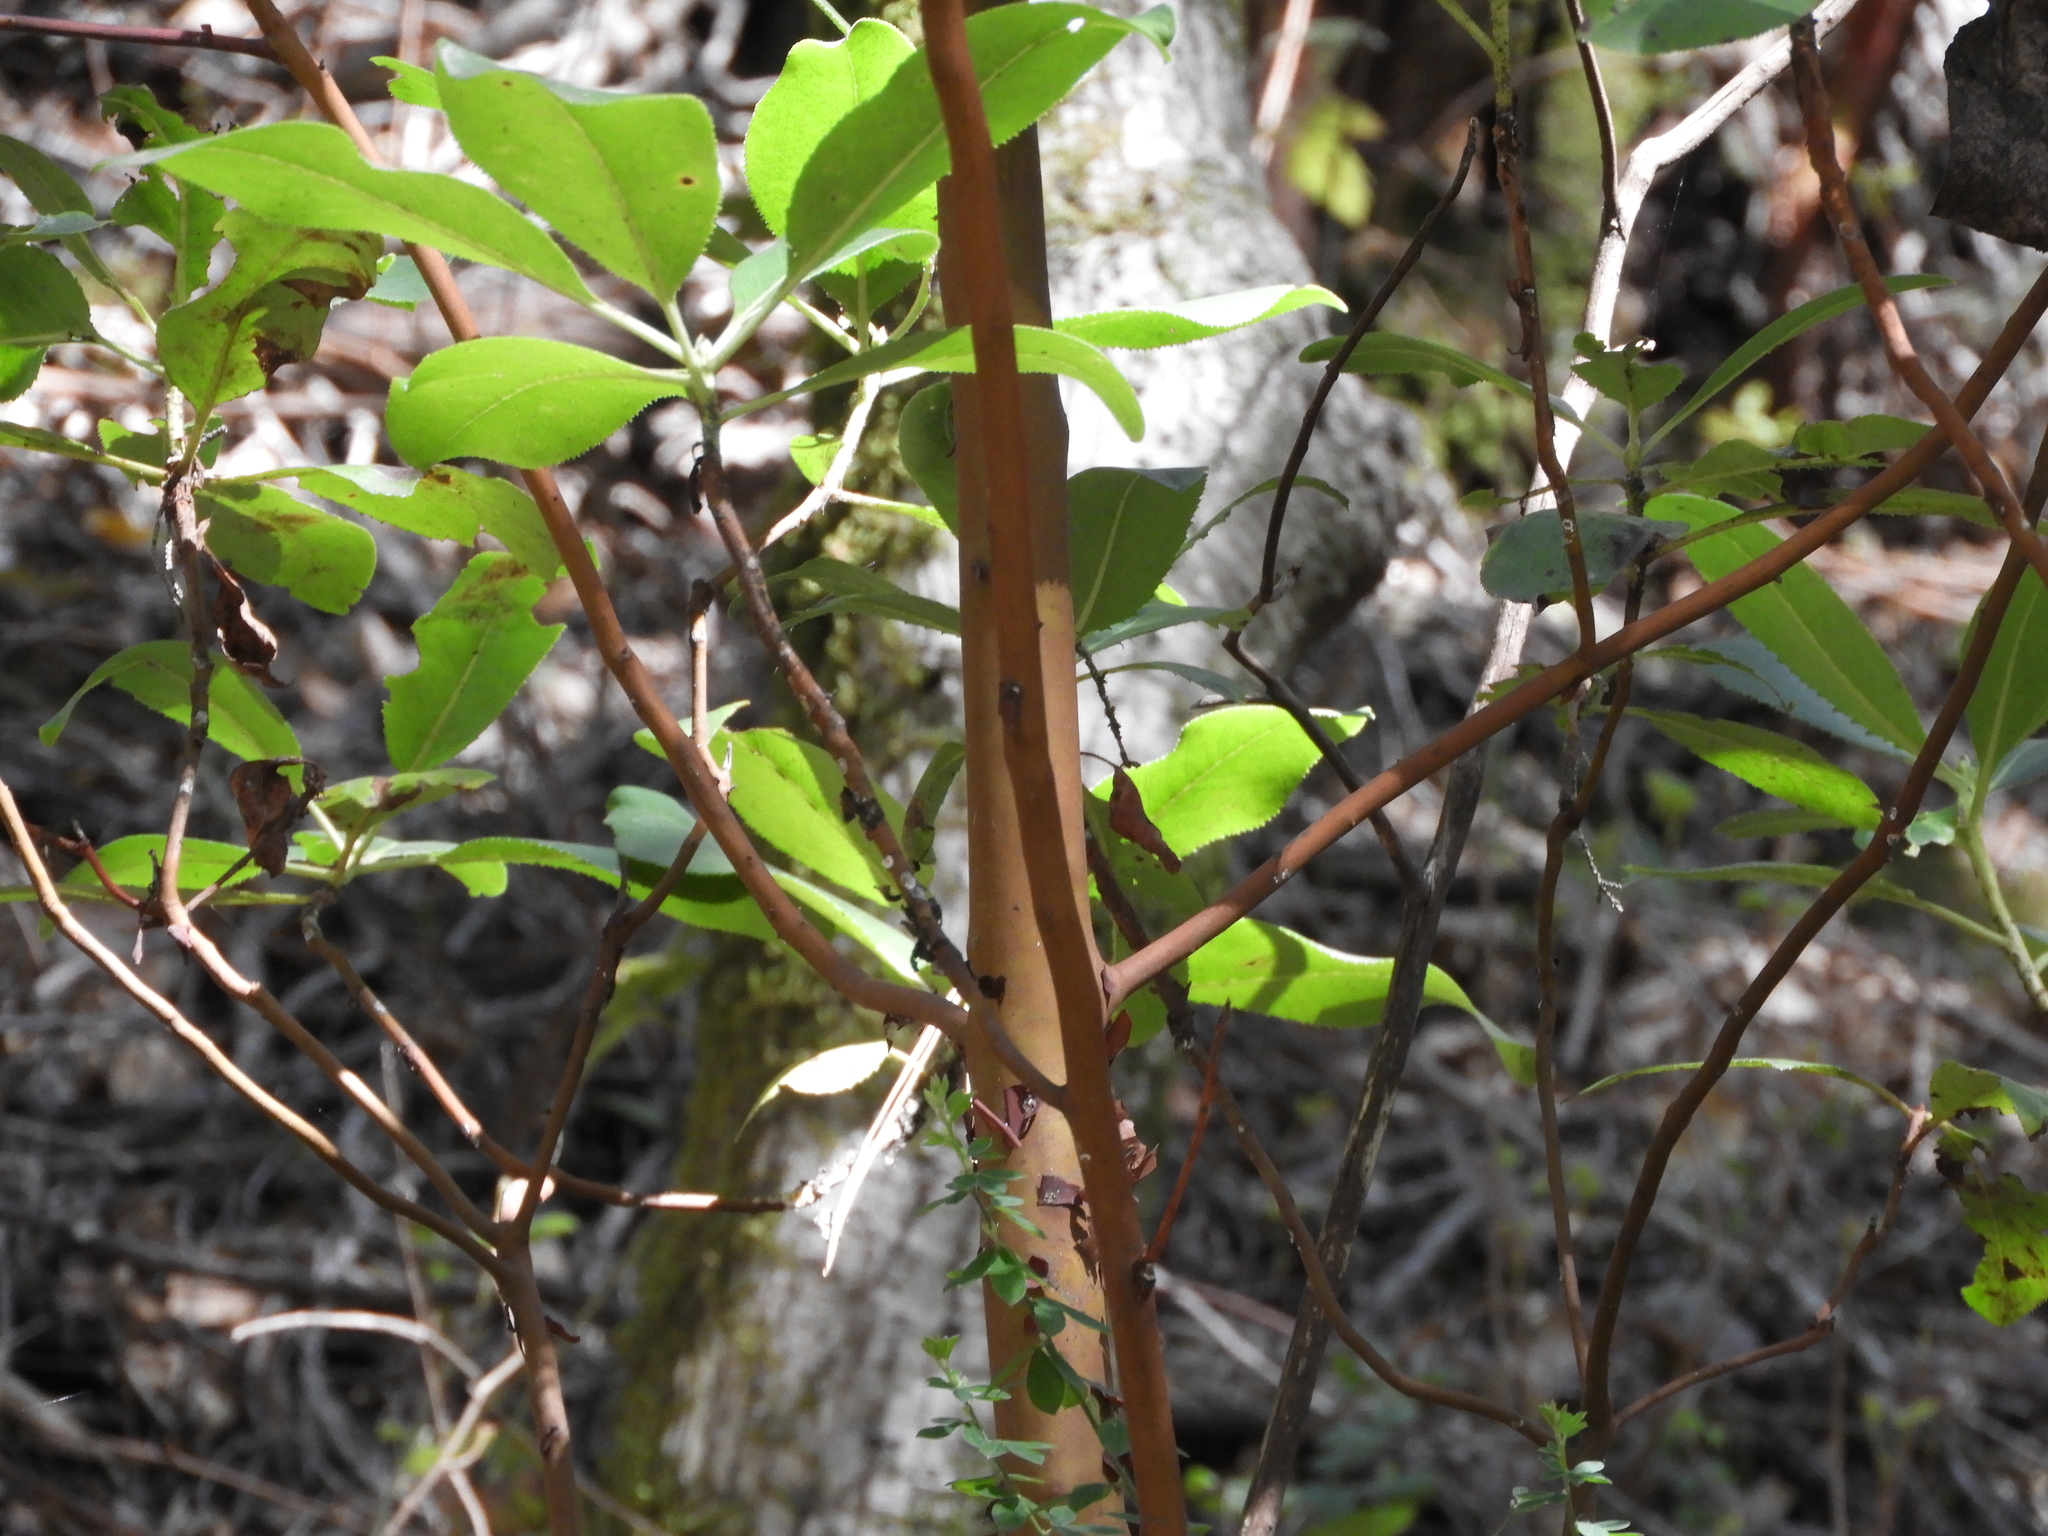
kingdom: Plantae
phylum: Tracheophyta
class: Magnoliopsida
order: Ericales
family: Ericaceae
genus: Arbutus
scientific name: Arbutus menziesii
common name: Pacific madrone
